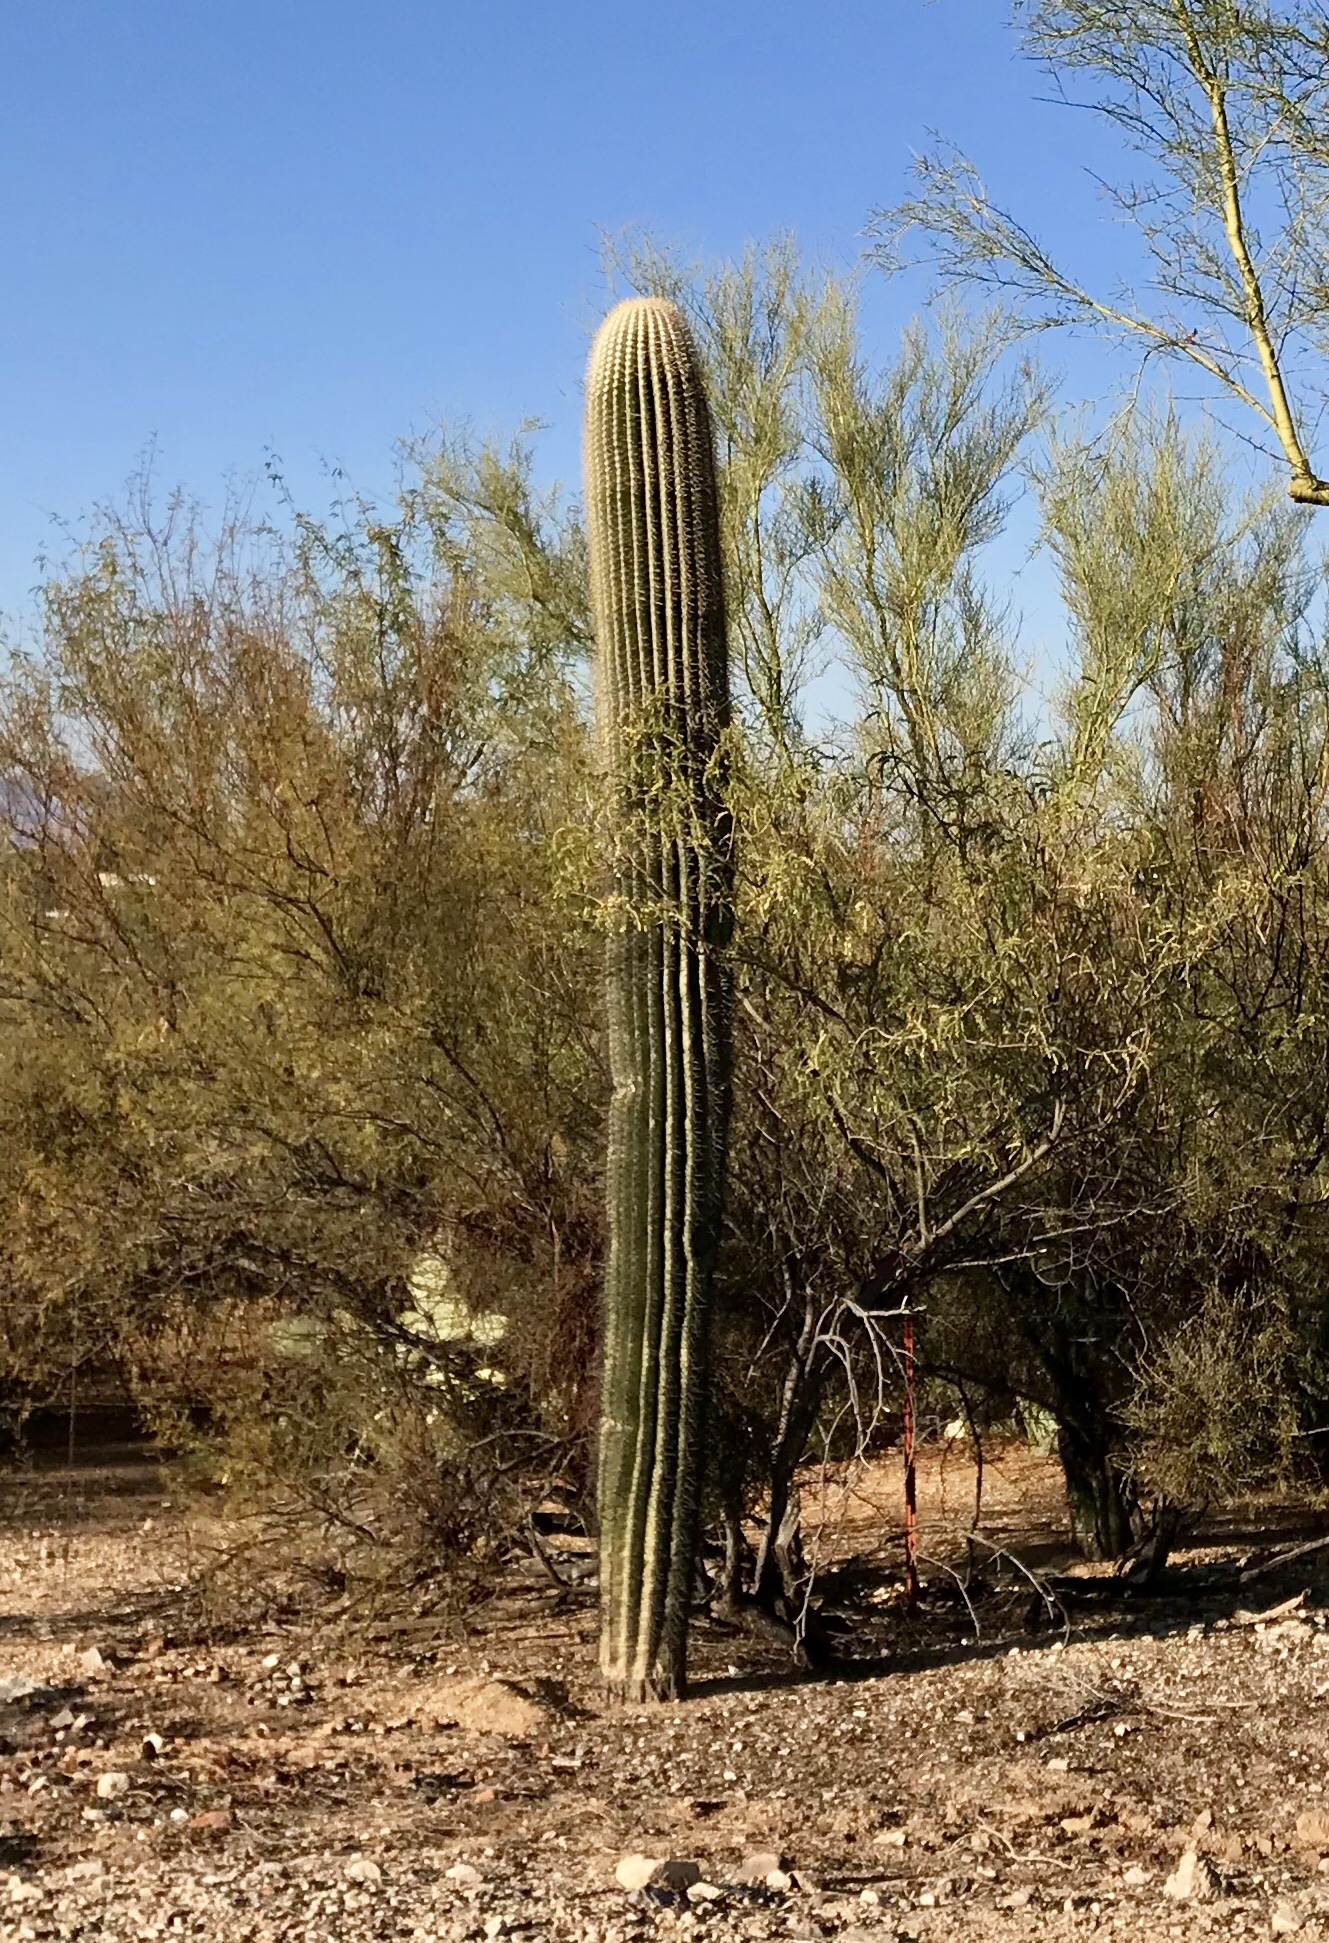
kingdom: Plantae
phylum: Tracheophyta
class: Magnoliopsida
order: Caryophyllales
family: Cactaceae
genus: Carnegiea
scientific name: Carnegiea gigantea
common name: Saguaro
